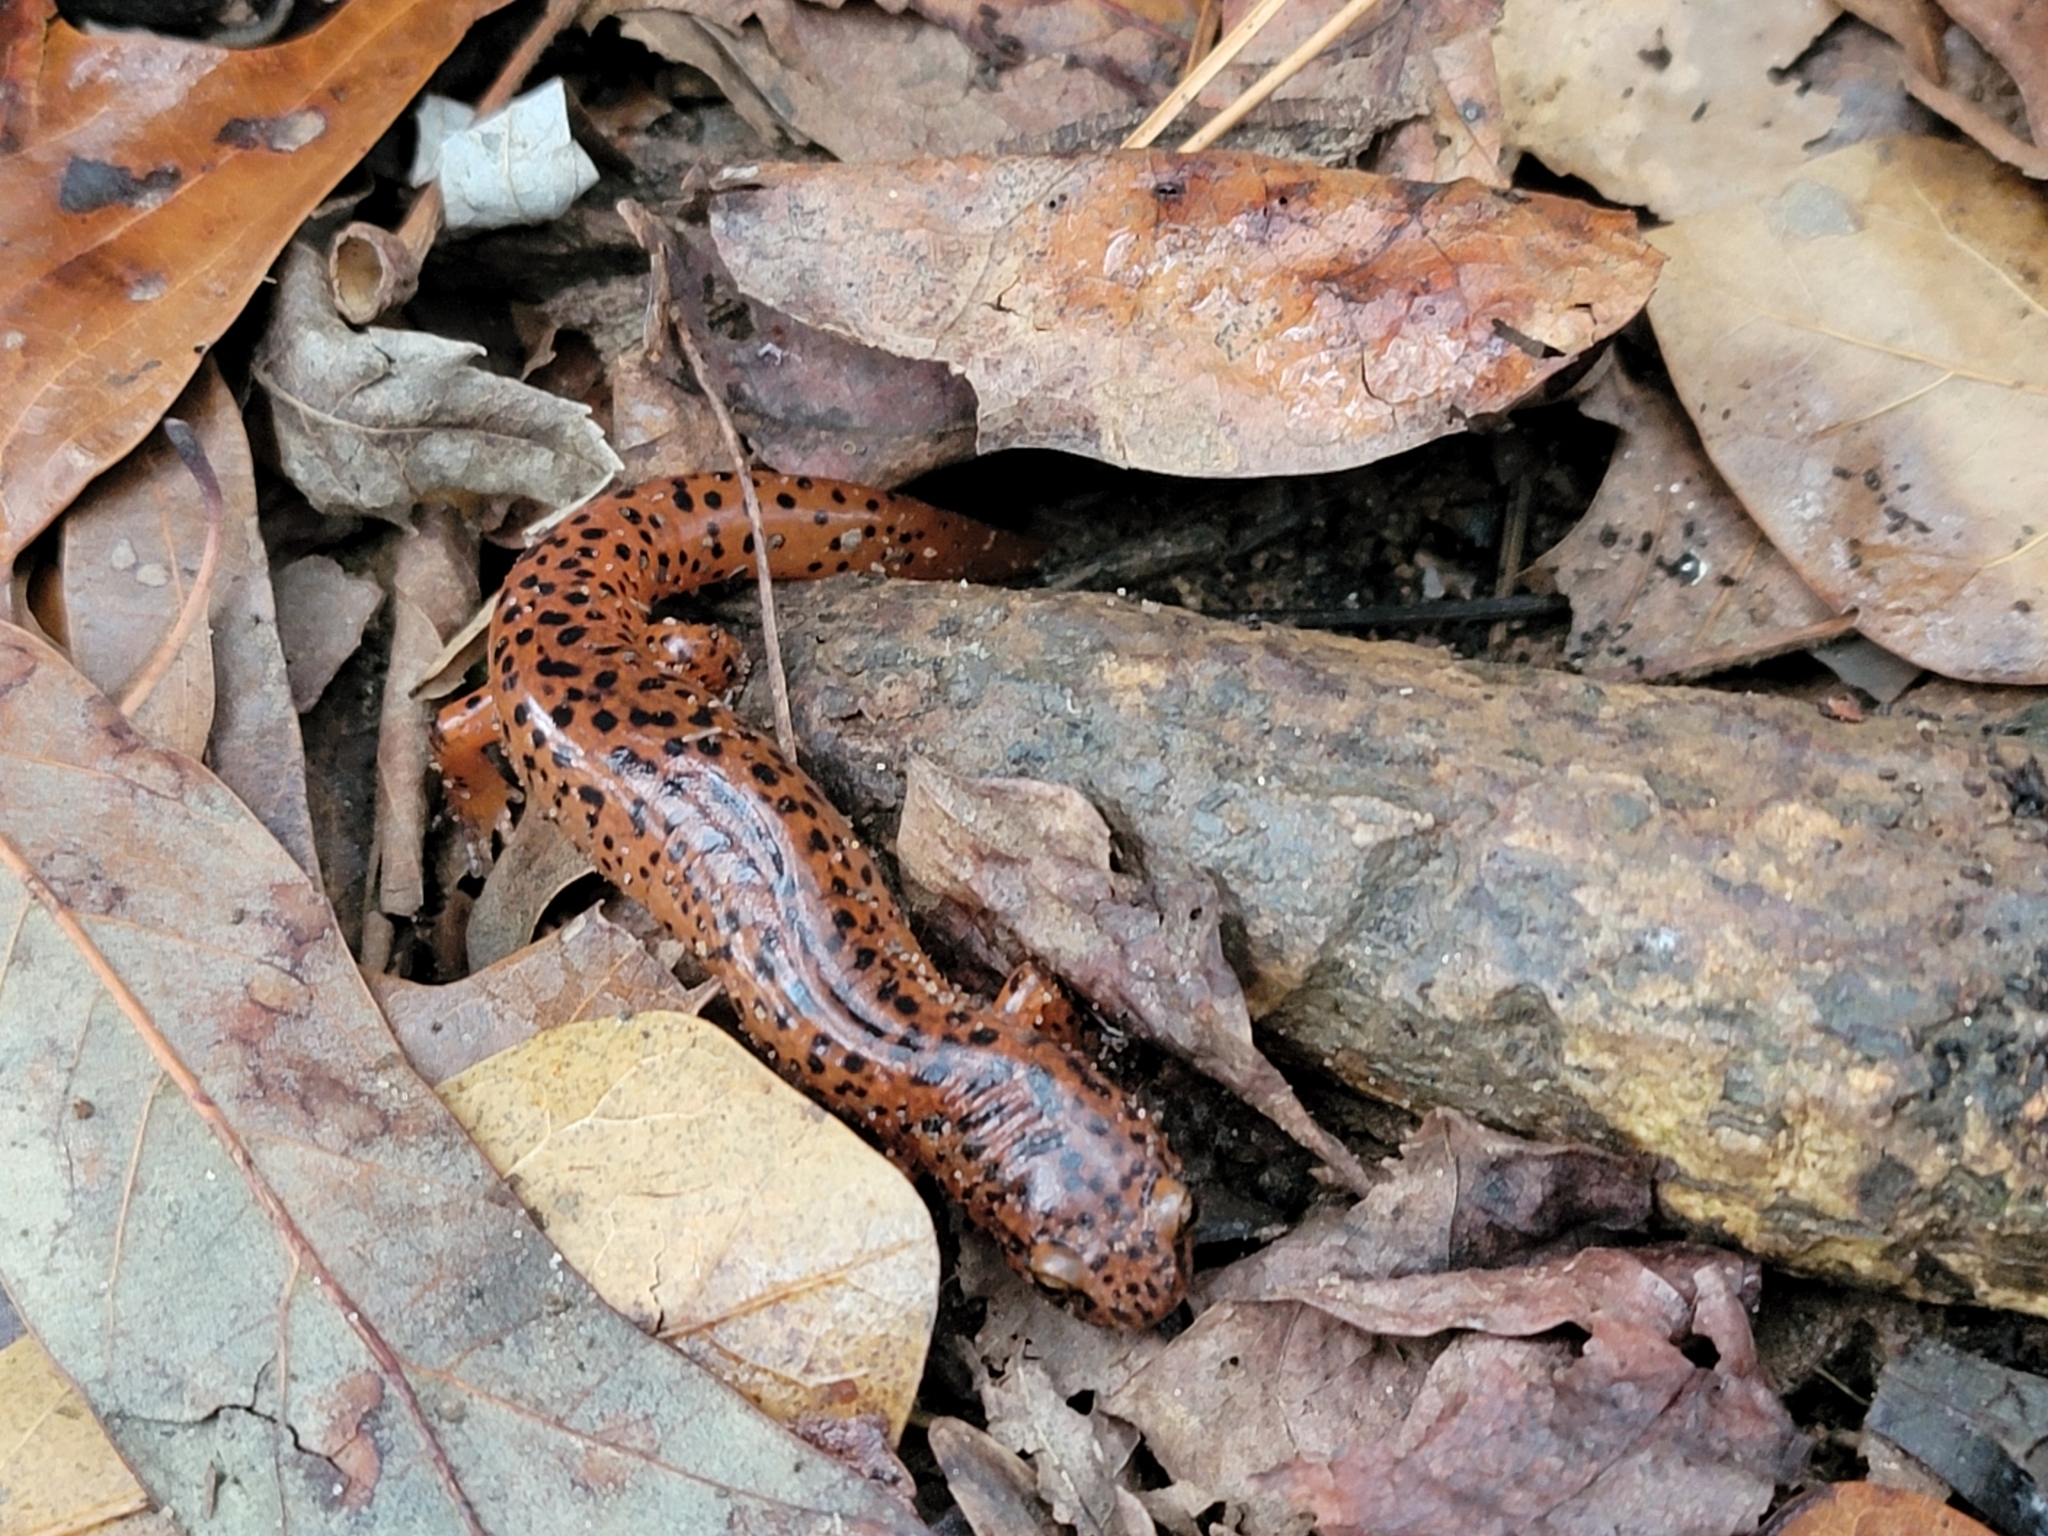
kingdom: Animalia
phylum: Chordata
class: Amphibia
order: Caudata
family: Plethodontidae
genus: Pseudotriton
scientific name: Pseudotriton ruber
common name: Red salamander
